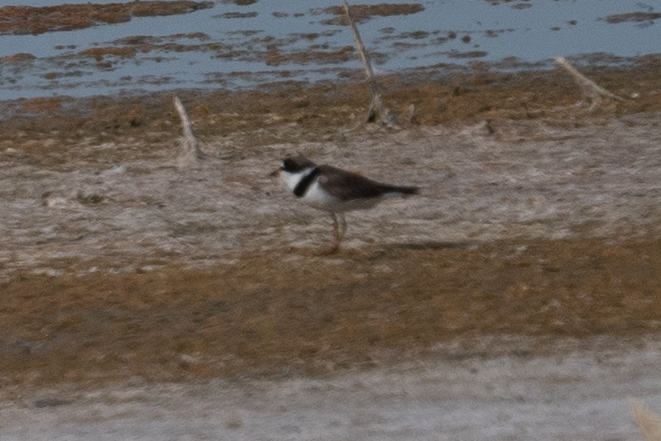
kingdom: Animalia
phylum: Chordata
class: Aves
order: Charadriiformes
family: Charadriidae
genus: Charadrius
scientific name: Charadrius semipalmatus
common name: Semipalmated plover
